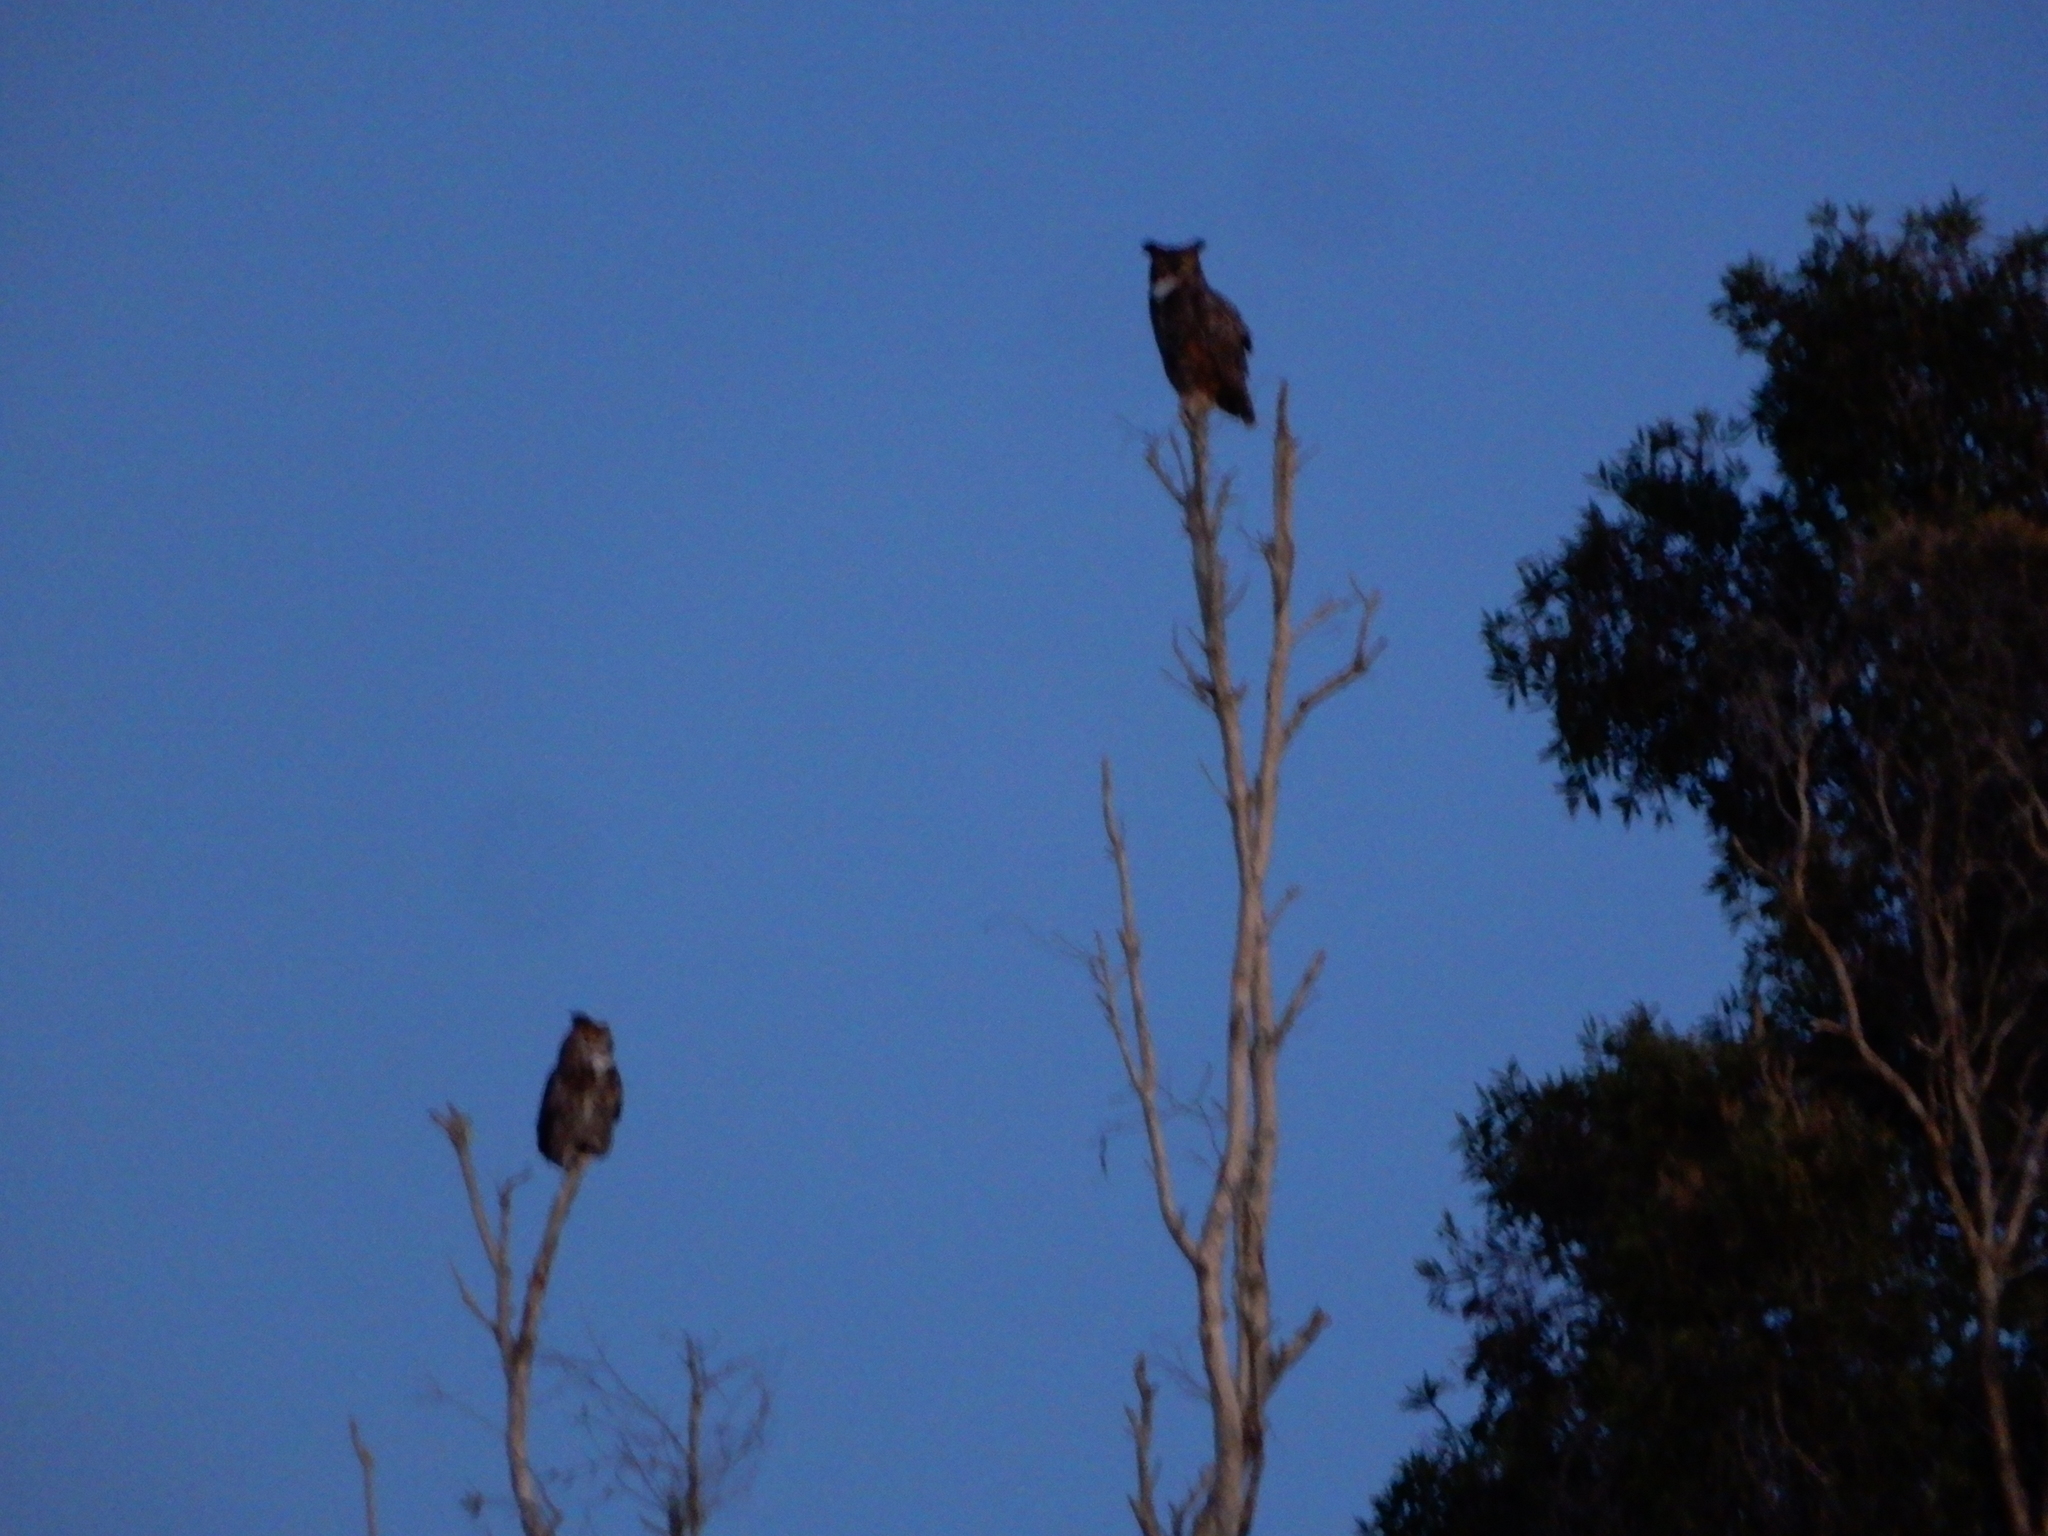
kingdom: Animalia
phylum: Chordata
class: Aves
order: Strigiformes
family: Strigidae
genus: Bubo
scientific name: Bubo virginianus
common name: Great horned owl
